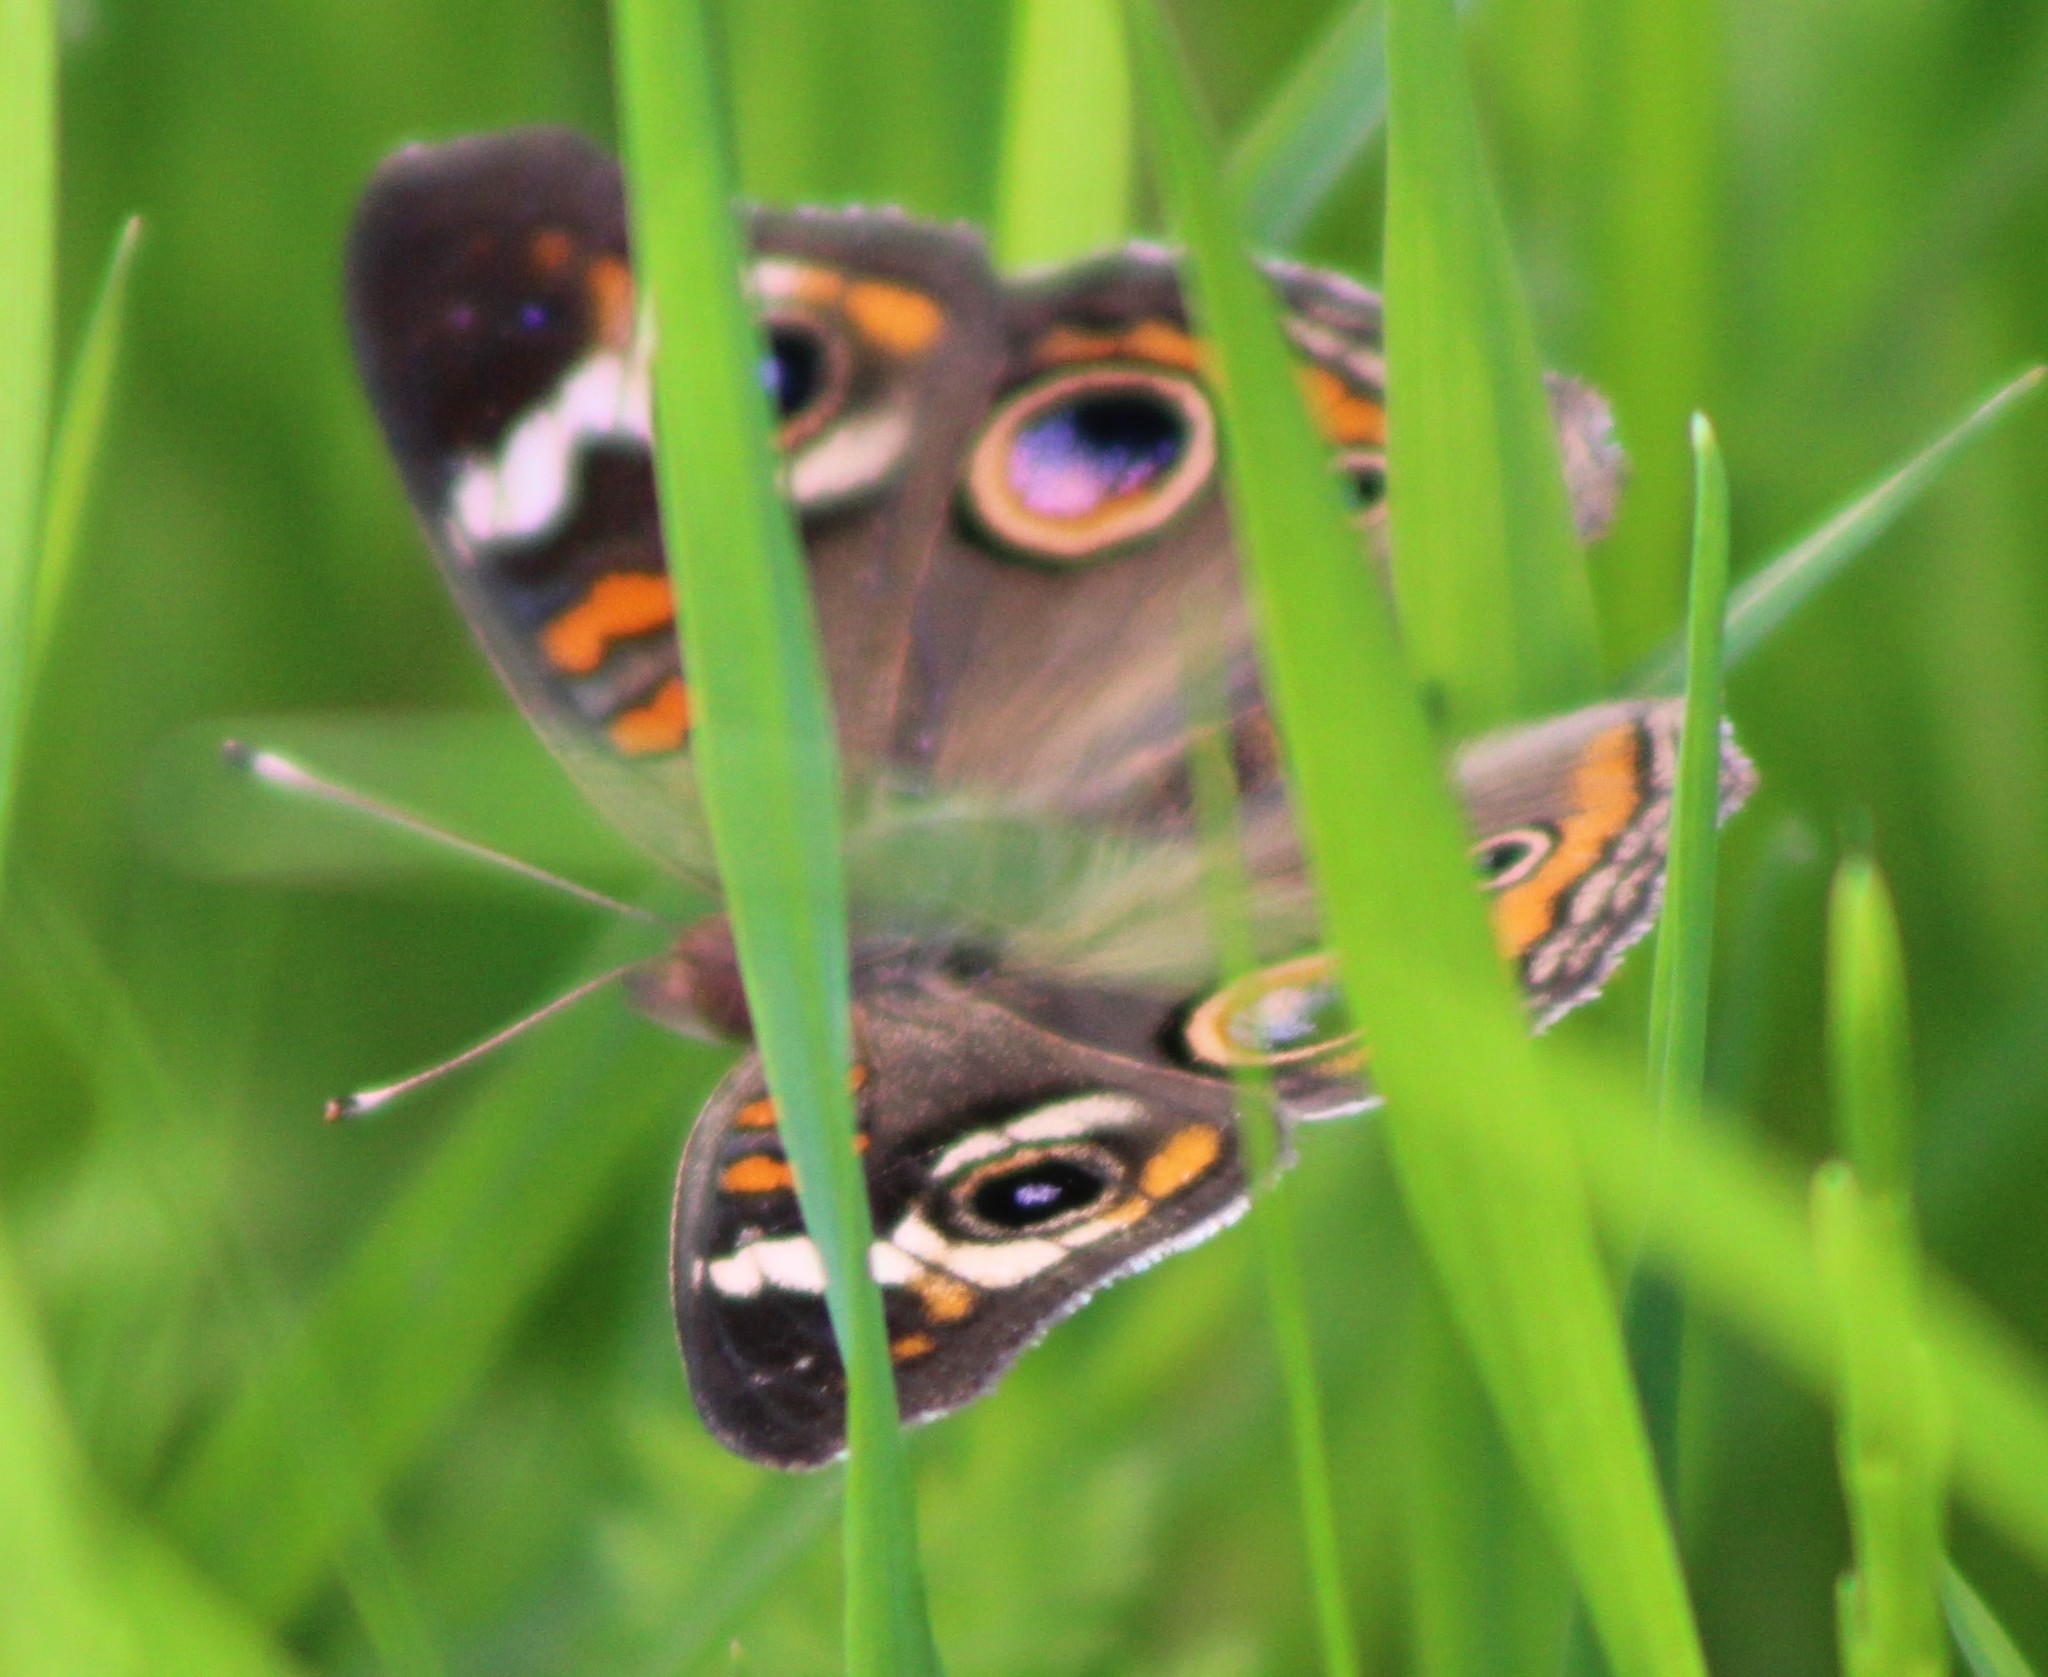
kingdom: Animalia
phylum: Arthropoda
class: Insecta
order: Lepidoptera
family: Nymphalidae
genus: Junonia
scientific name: Junonia coenia
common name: Common buckeye
